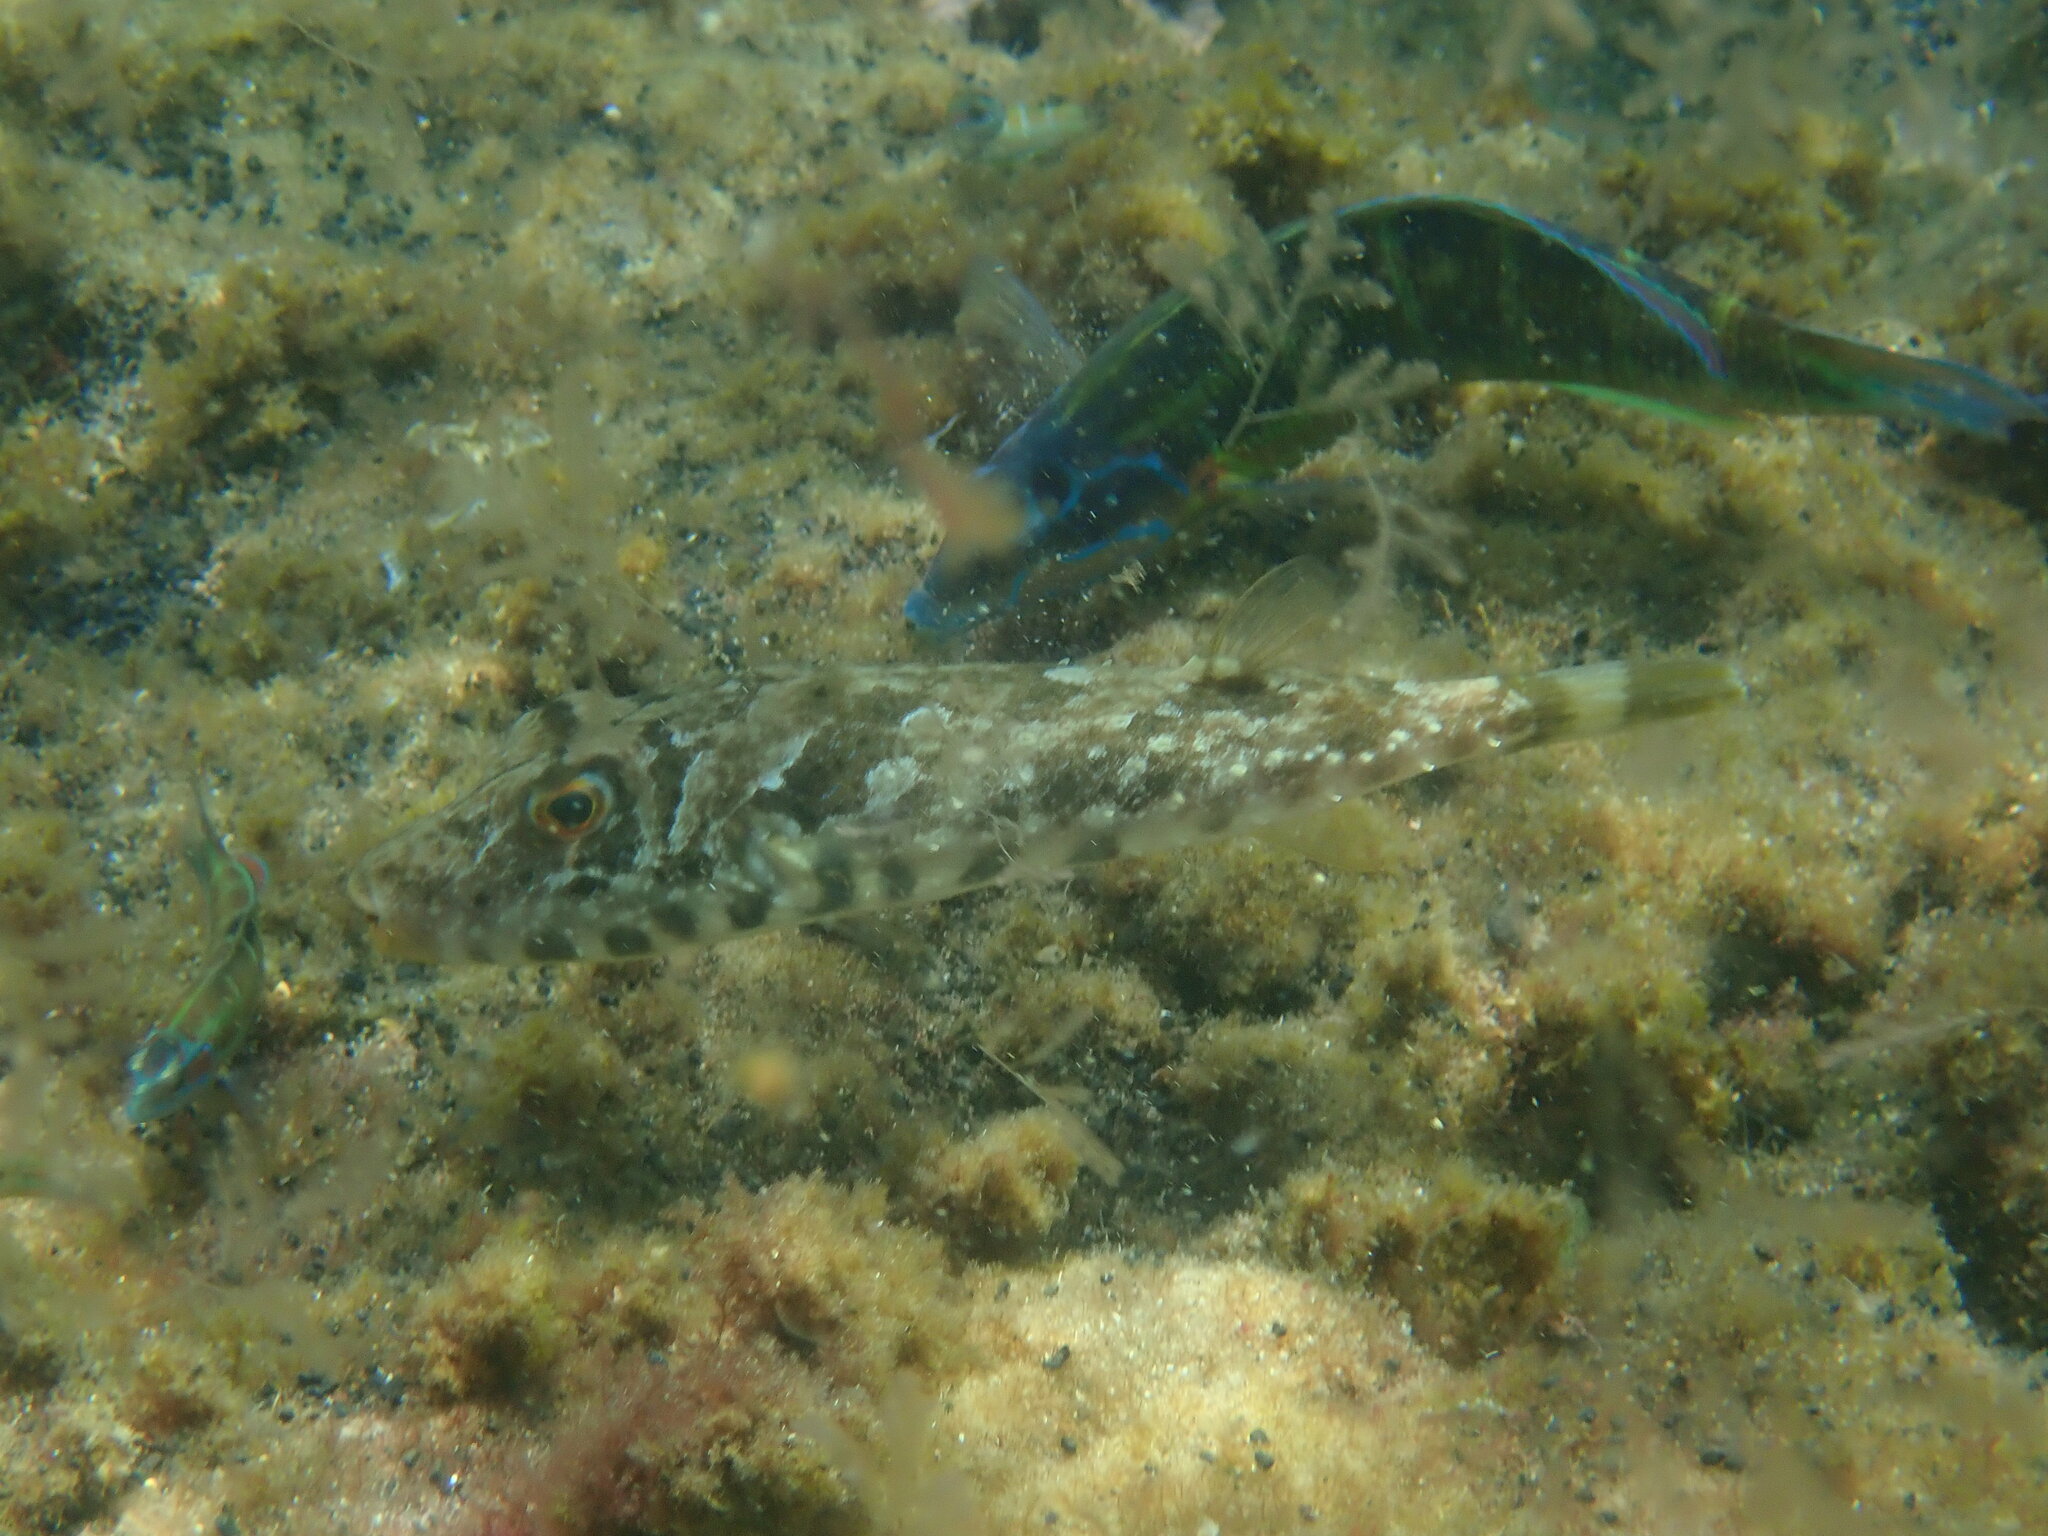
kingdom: Animalia
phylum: Chordata
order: Tetraodontiformes
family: Tetraodontidae
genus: Sphoeroides
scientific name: Sphoeroides marmoratus
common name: Guinean puffer
